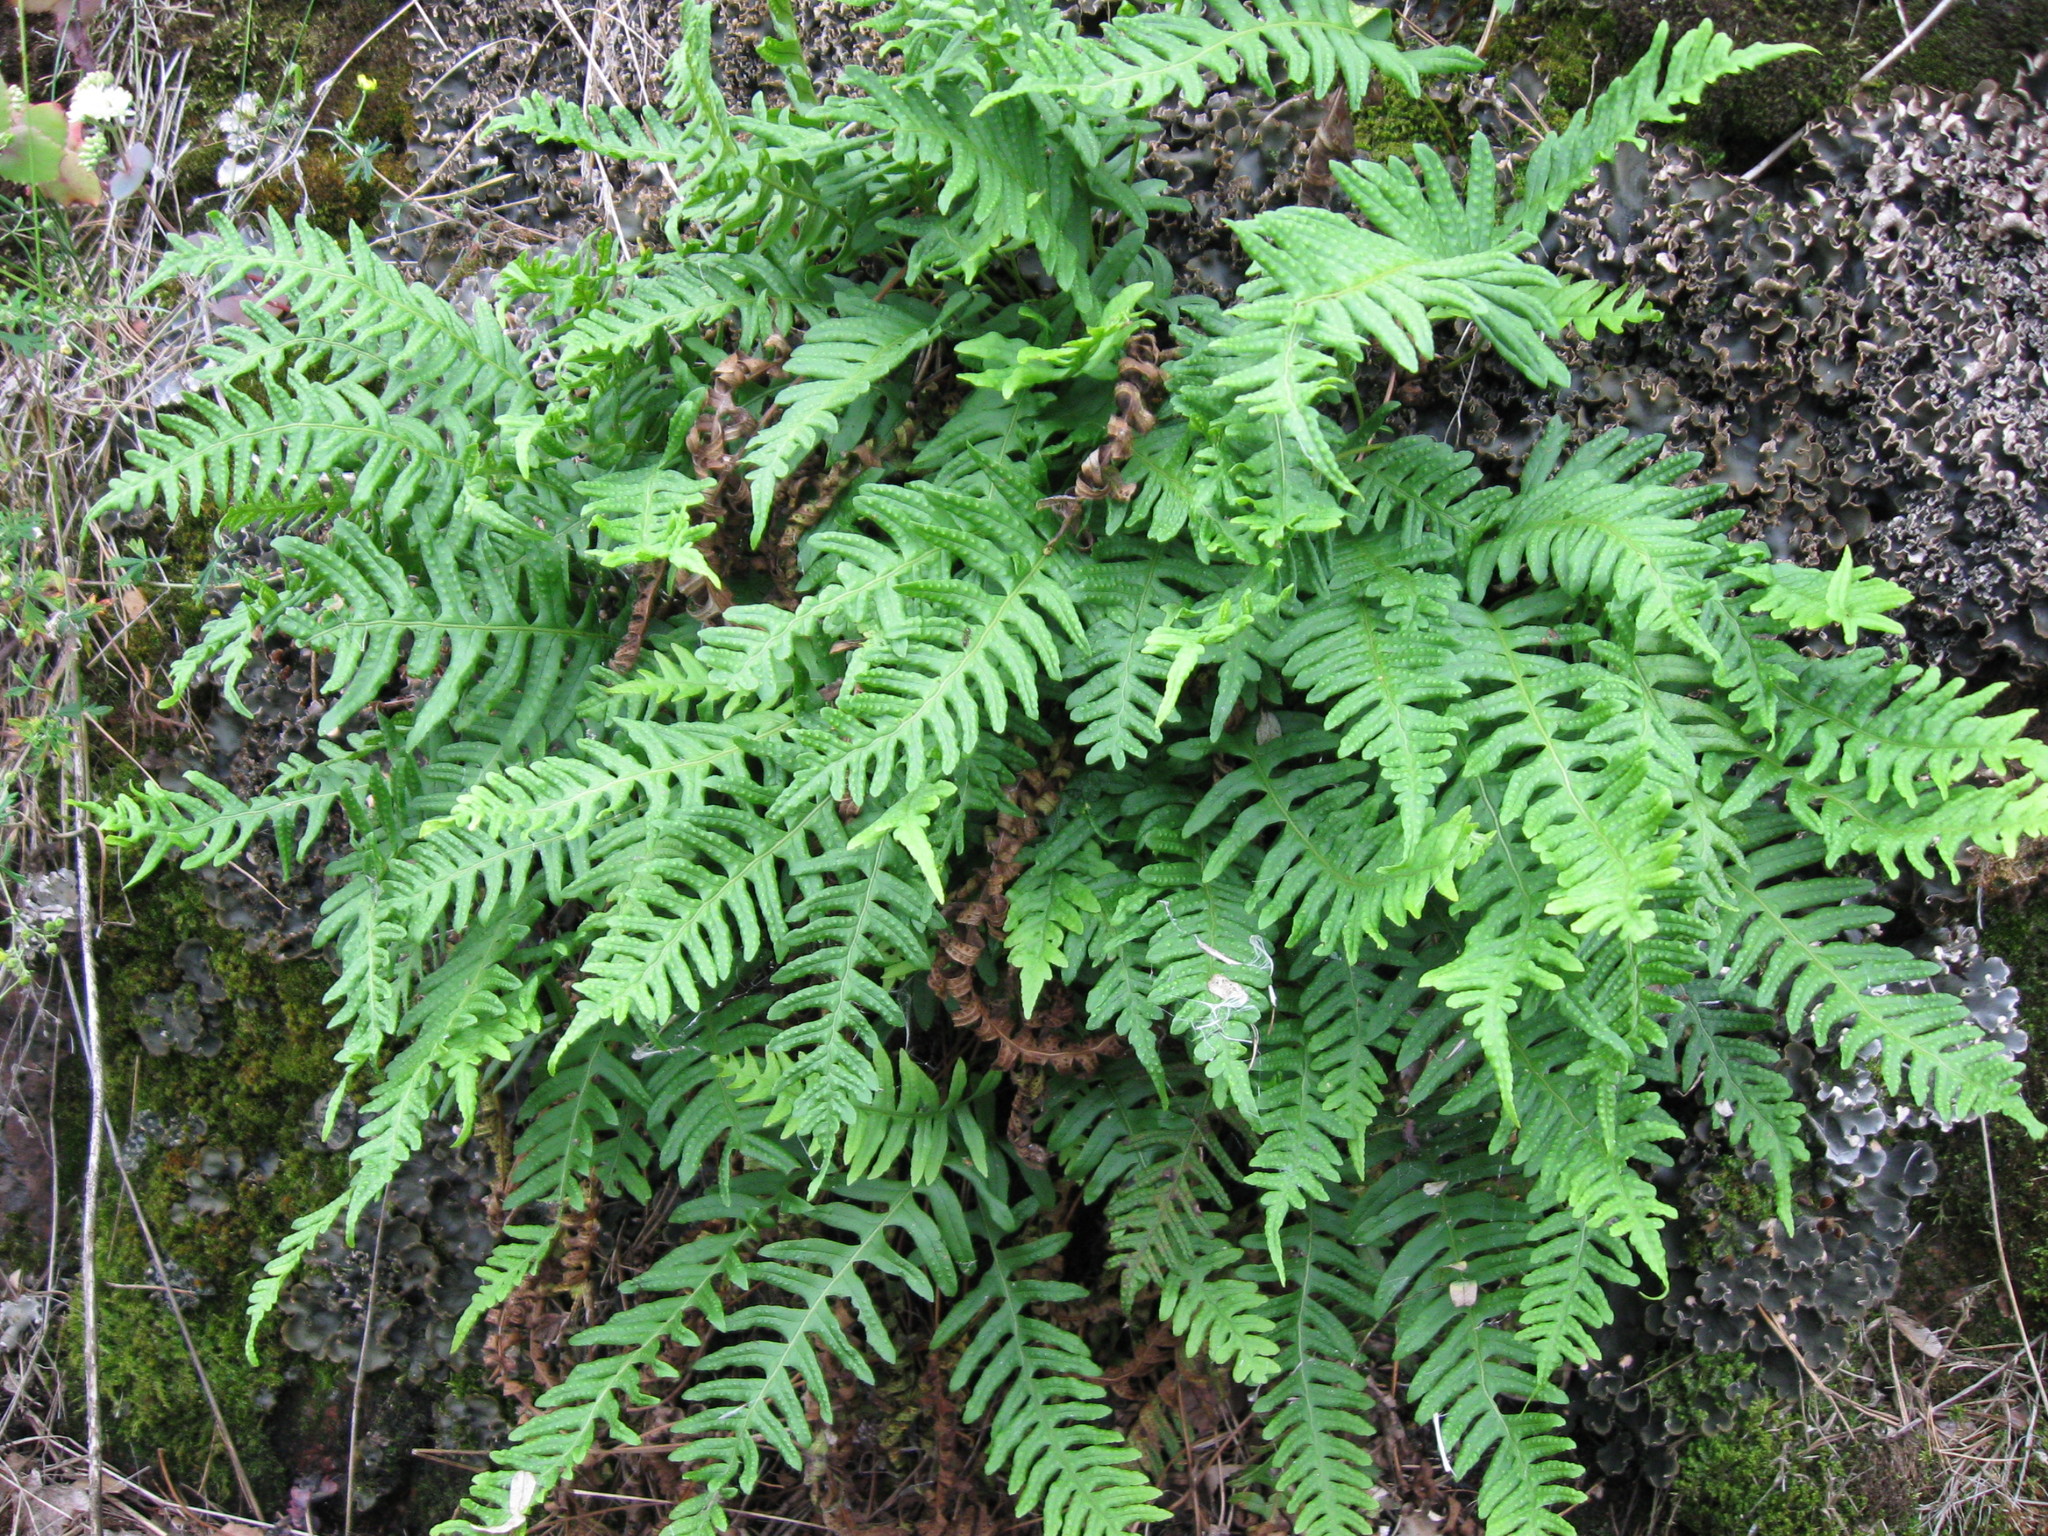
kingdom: Plantae
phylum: Tracheophyta
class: Polypodiopsida
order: Polypodiales
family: Polypodiaceae
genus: Polypodium
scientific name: Polypodium vulgare
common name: Common polypody
